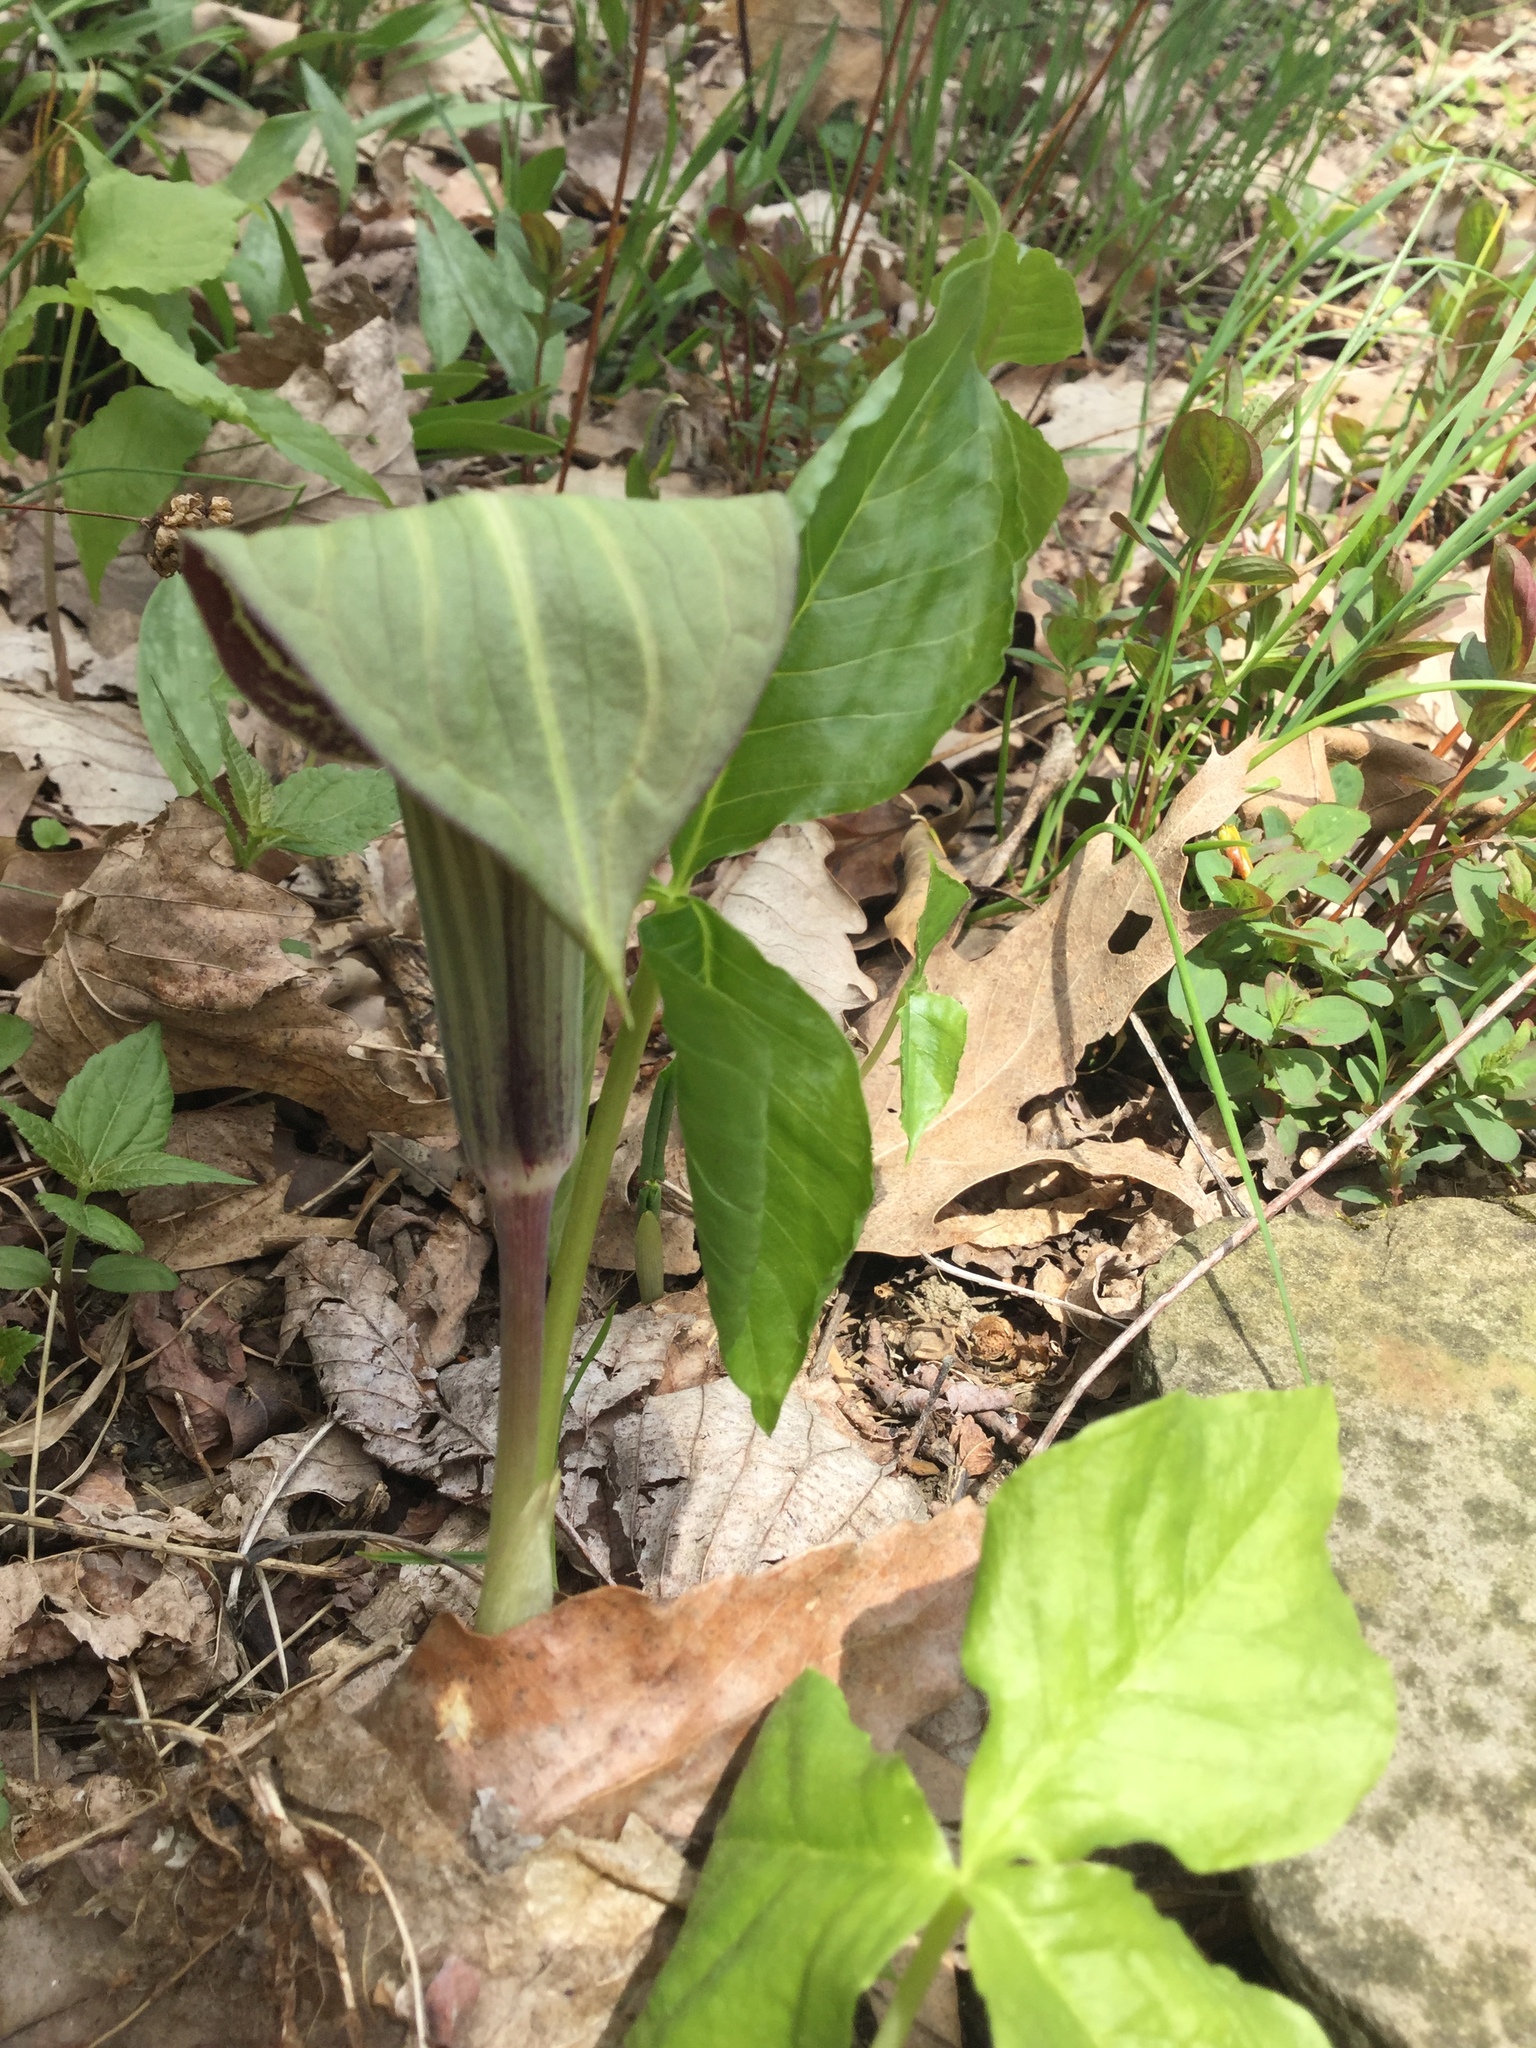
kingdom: Plantae
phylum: Tracheophyta
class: Liliopsida
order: Alismatales
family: Araceae
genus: Arisaema
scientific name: Arisaema triphyllum
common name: Jack-in-the-pulpit
